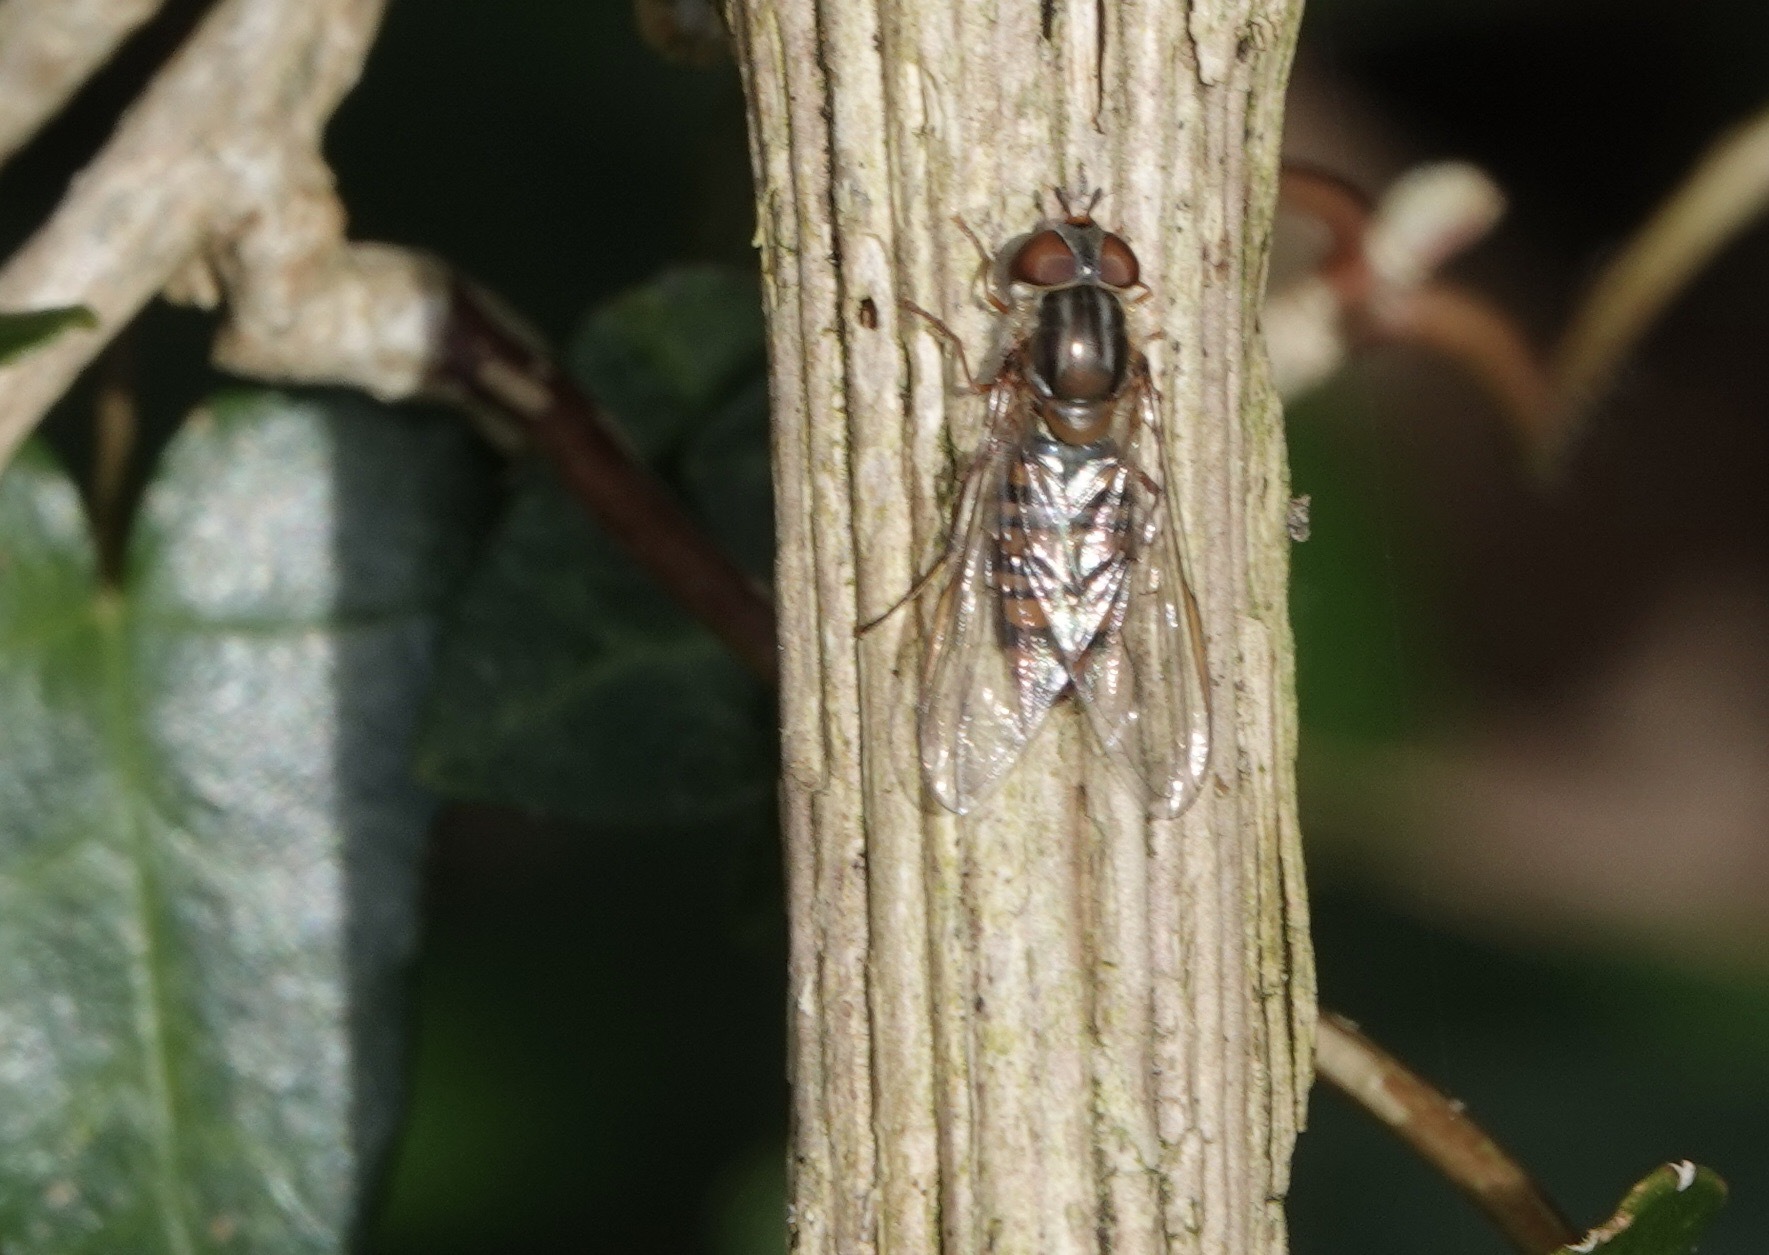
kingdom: Animalia
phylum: Arthropoda
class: Insecta
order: Diptera
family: Syrphidae
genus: Episyrphus
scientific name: Episyrphus balteatus
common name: Marmalade hoverfly
